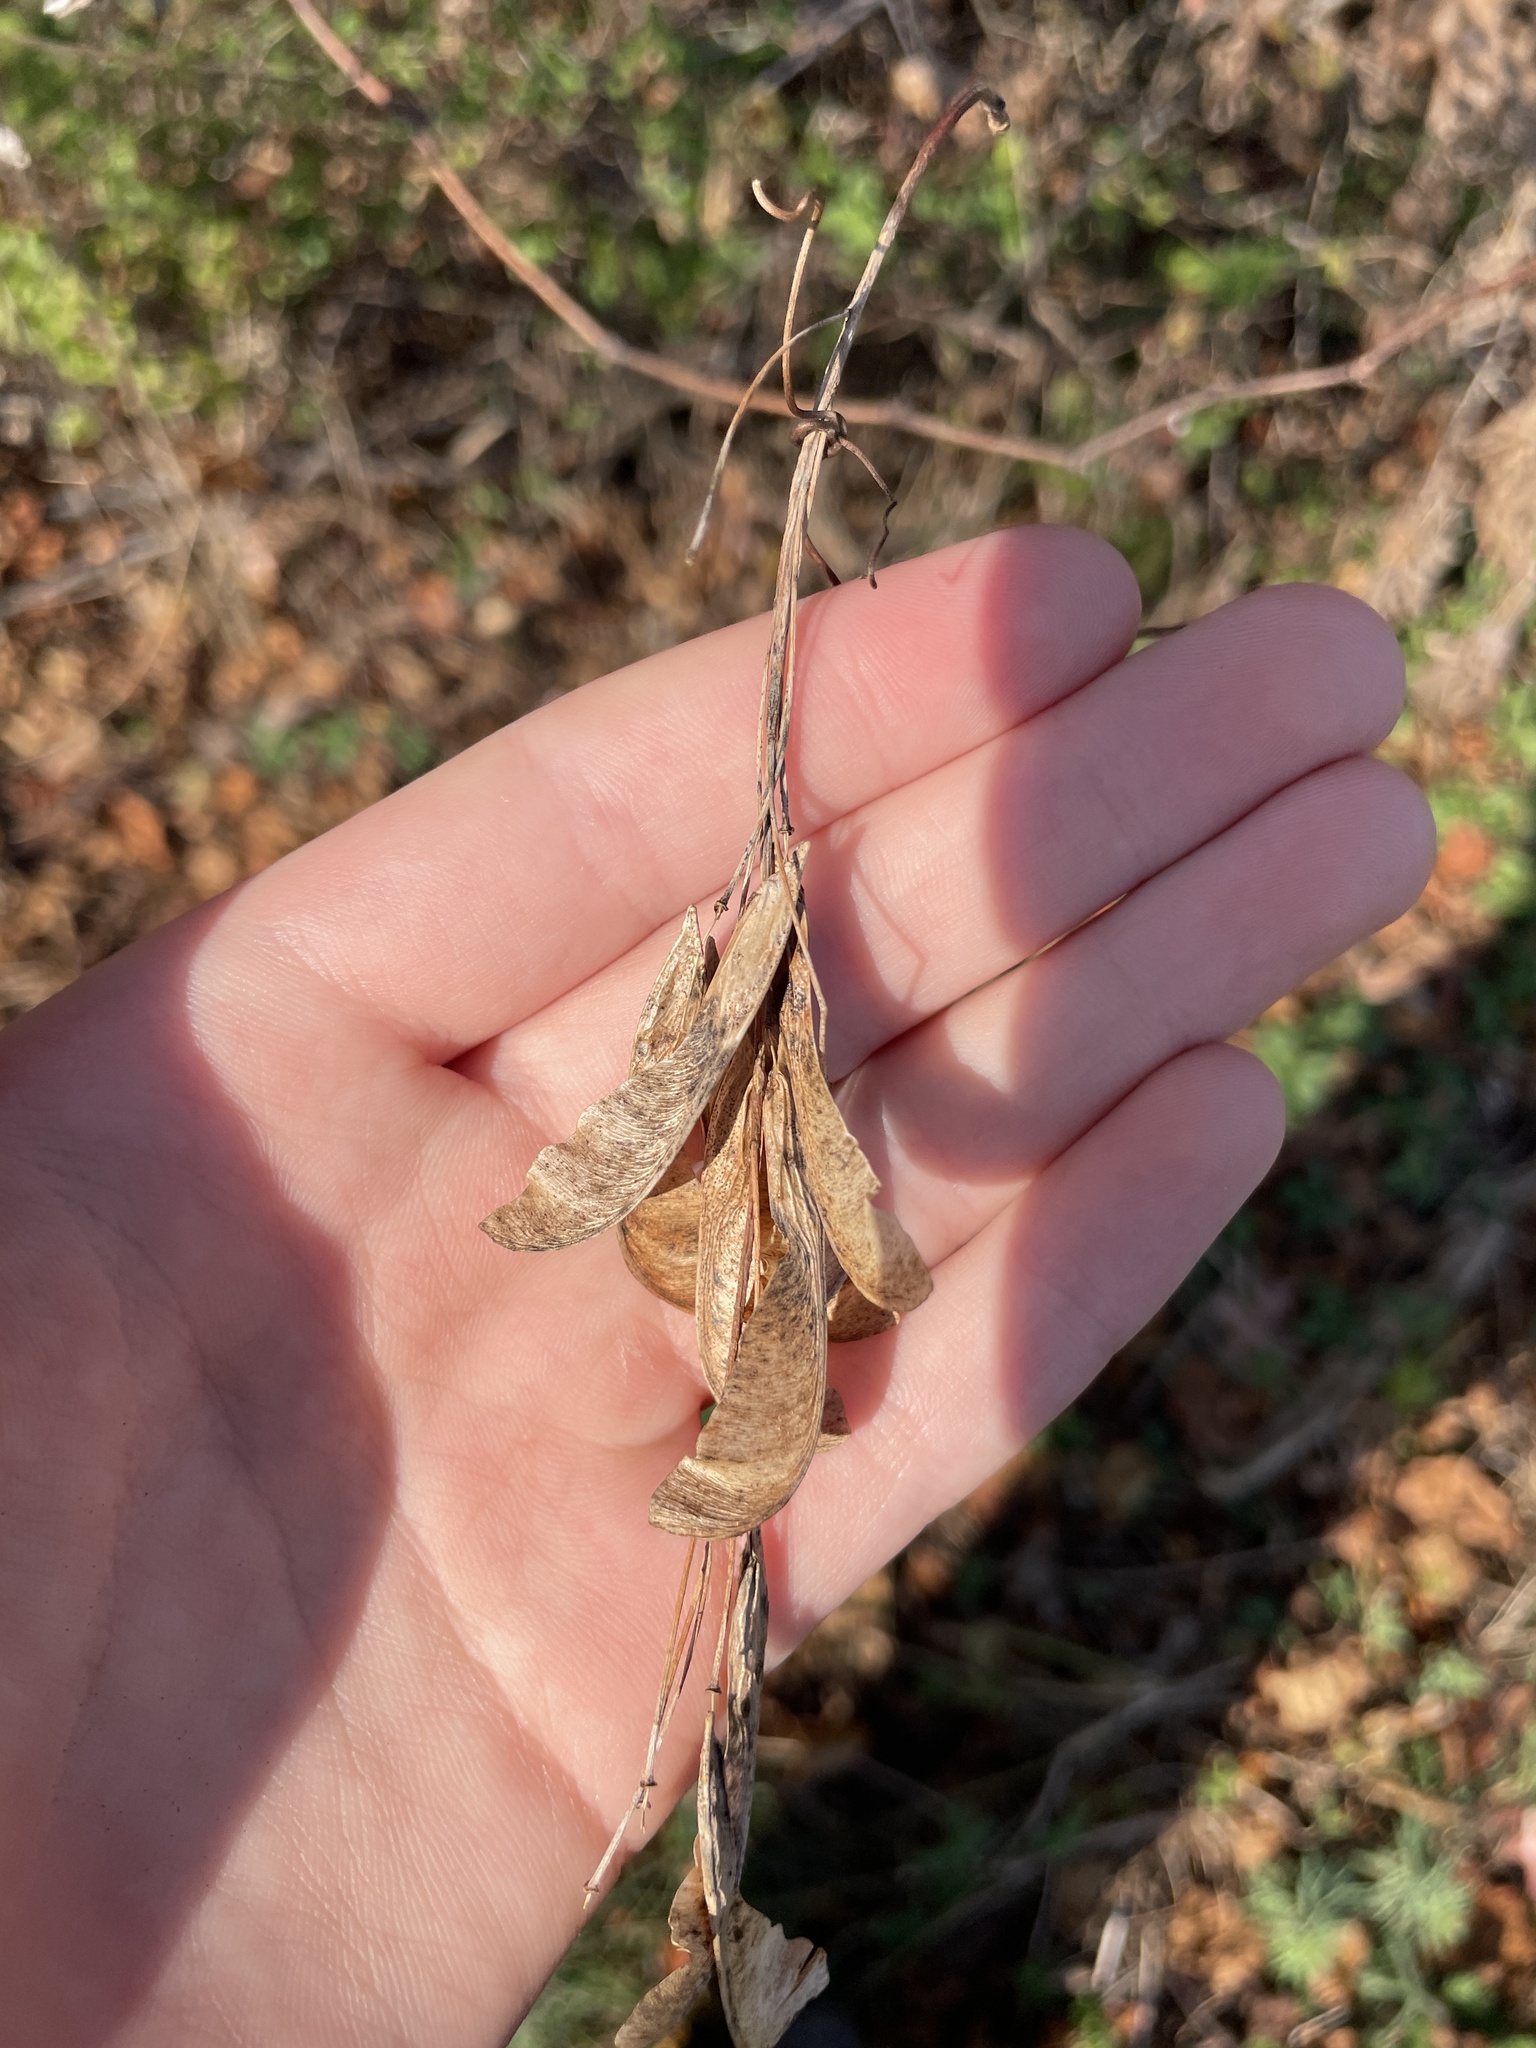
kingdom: Plantae
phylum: Tracheophyta
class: Magnoliopsida
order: Sapindales
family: Sapindaceae
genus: Acer
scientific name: Acer negundo
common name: Ashleaf maple
